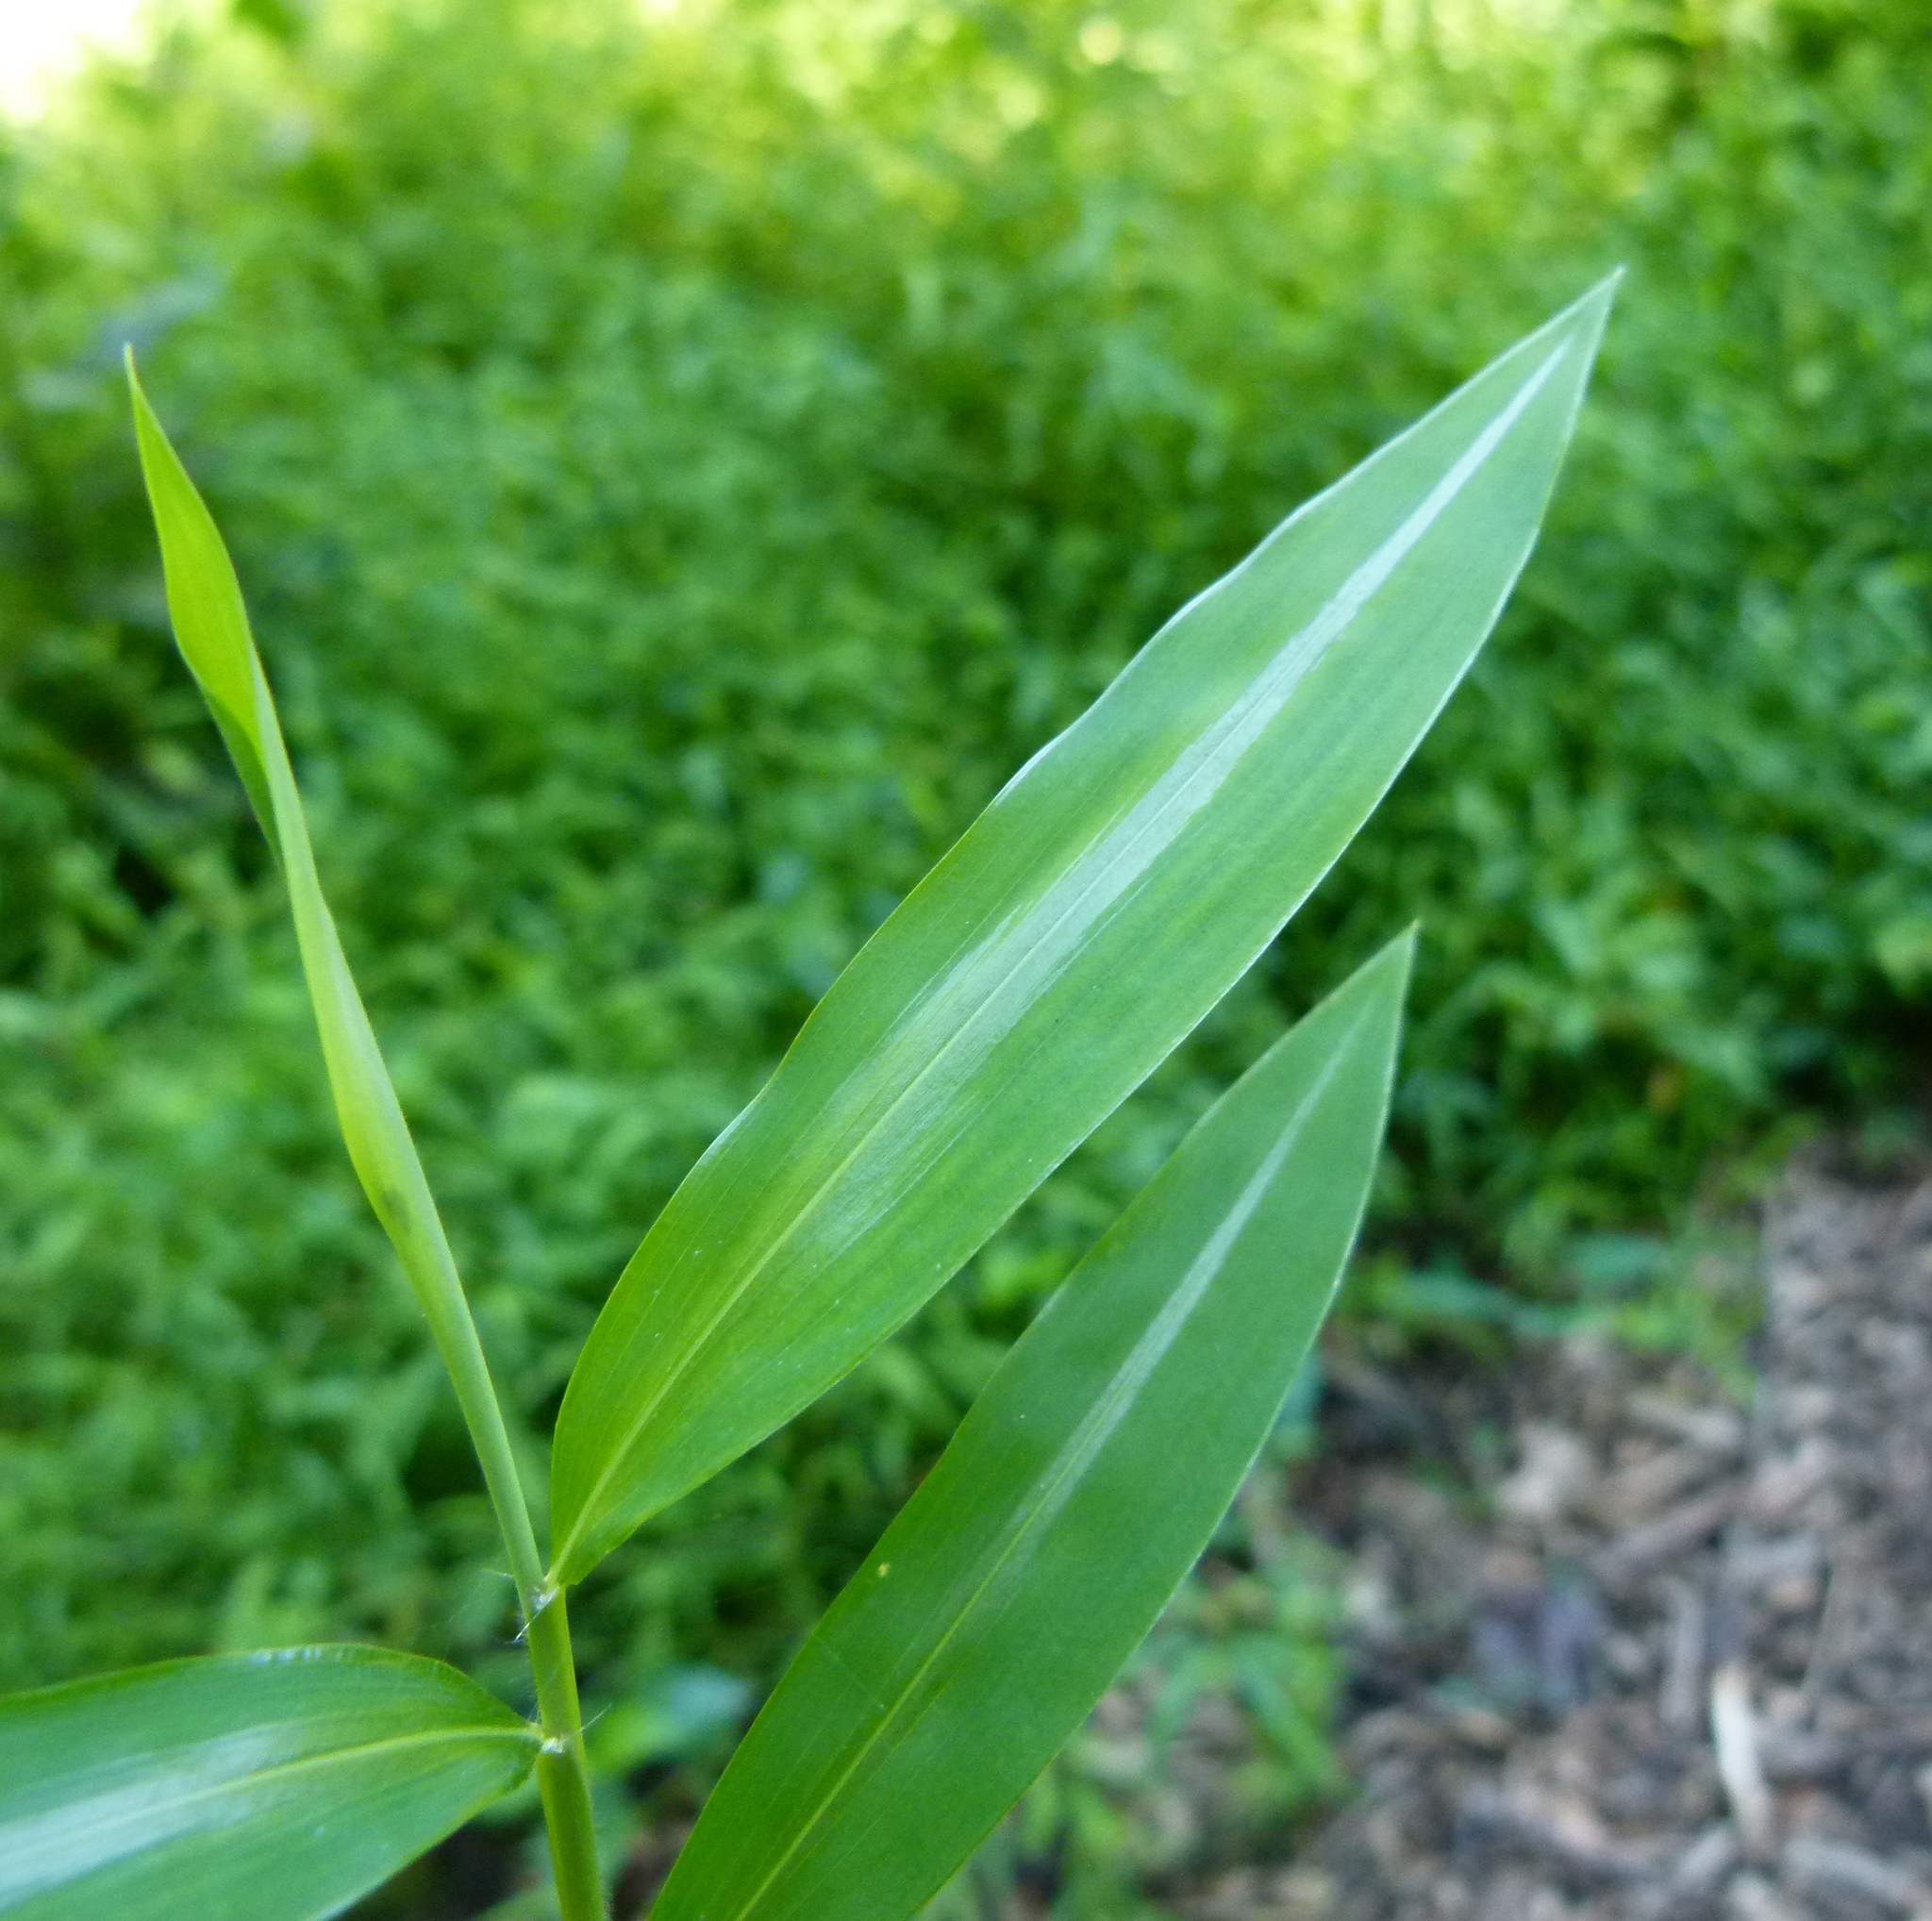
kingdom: Plantae
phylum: Tracheophyta
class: Liliopsida
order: Poales
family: Poaceae
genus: Microstegium
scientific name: Microstegium vimineum
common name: Japanese stiltgrass
